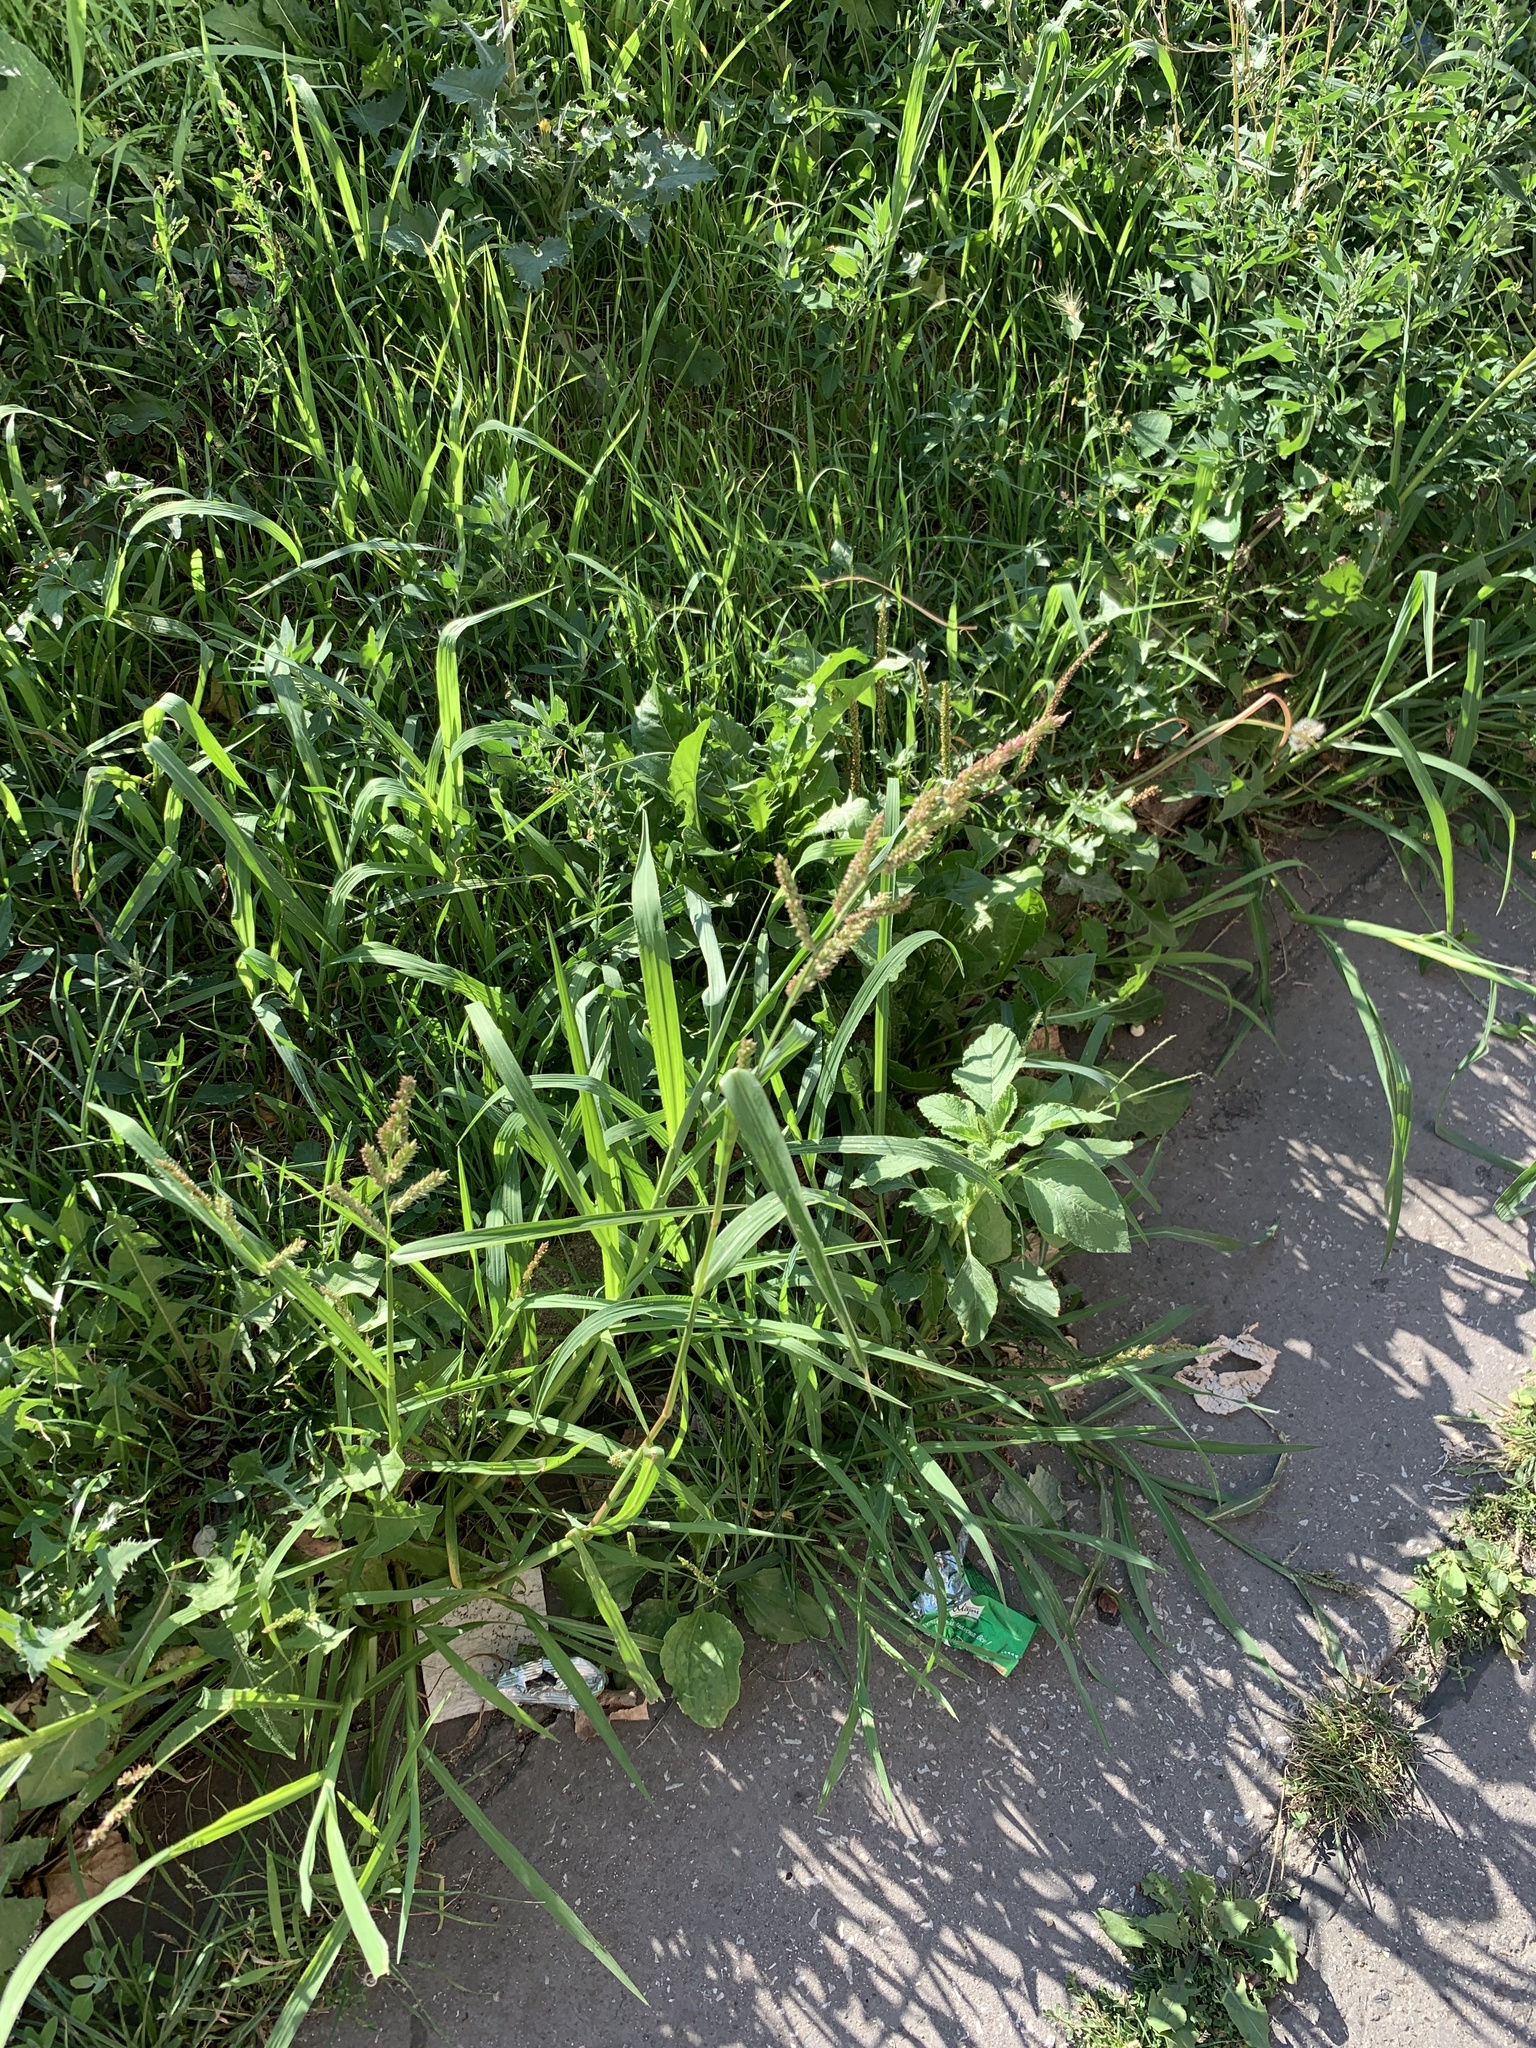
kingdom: Plantae
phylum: Tracheophyta
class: Liliopsida
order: Poales
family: Poaceae
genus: Echinochloa
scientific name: Echinochloa crus-galli
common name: Cockspur
